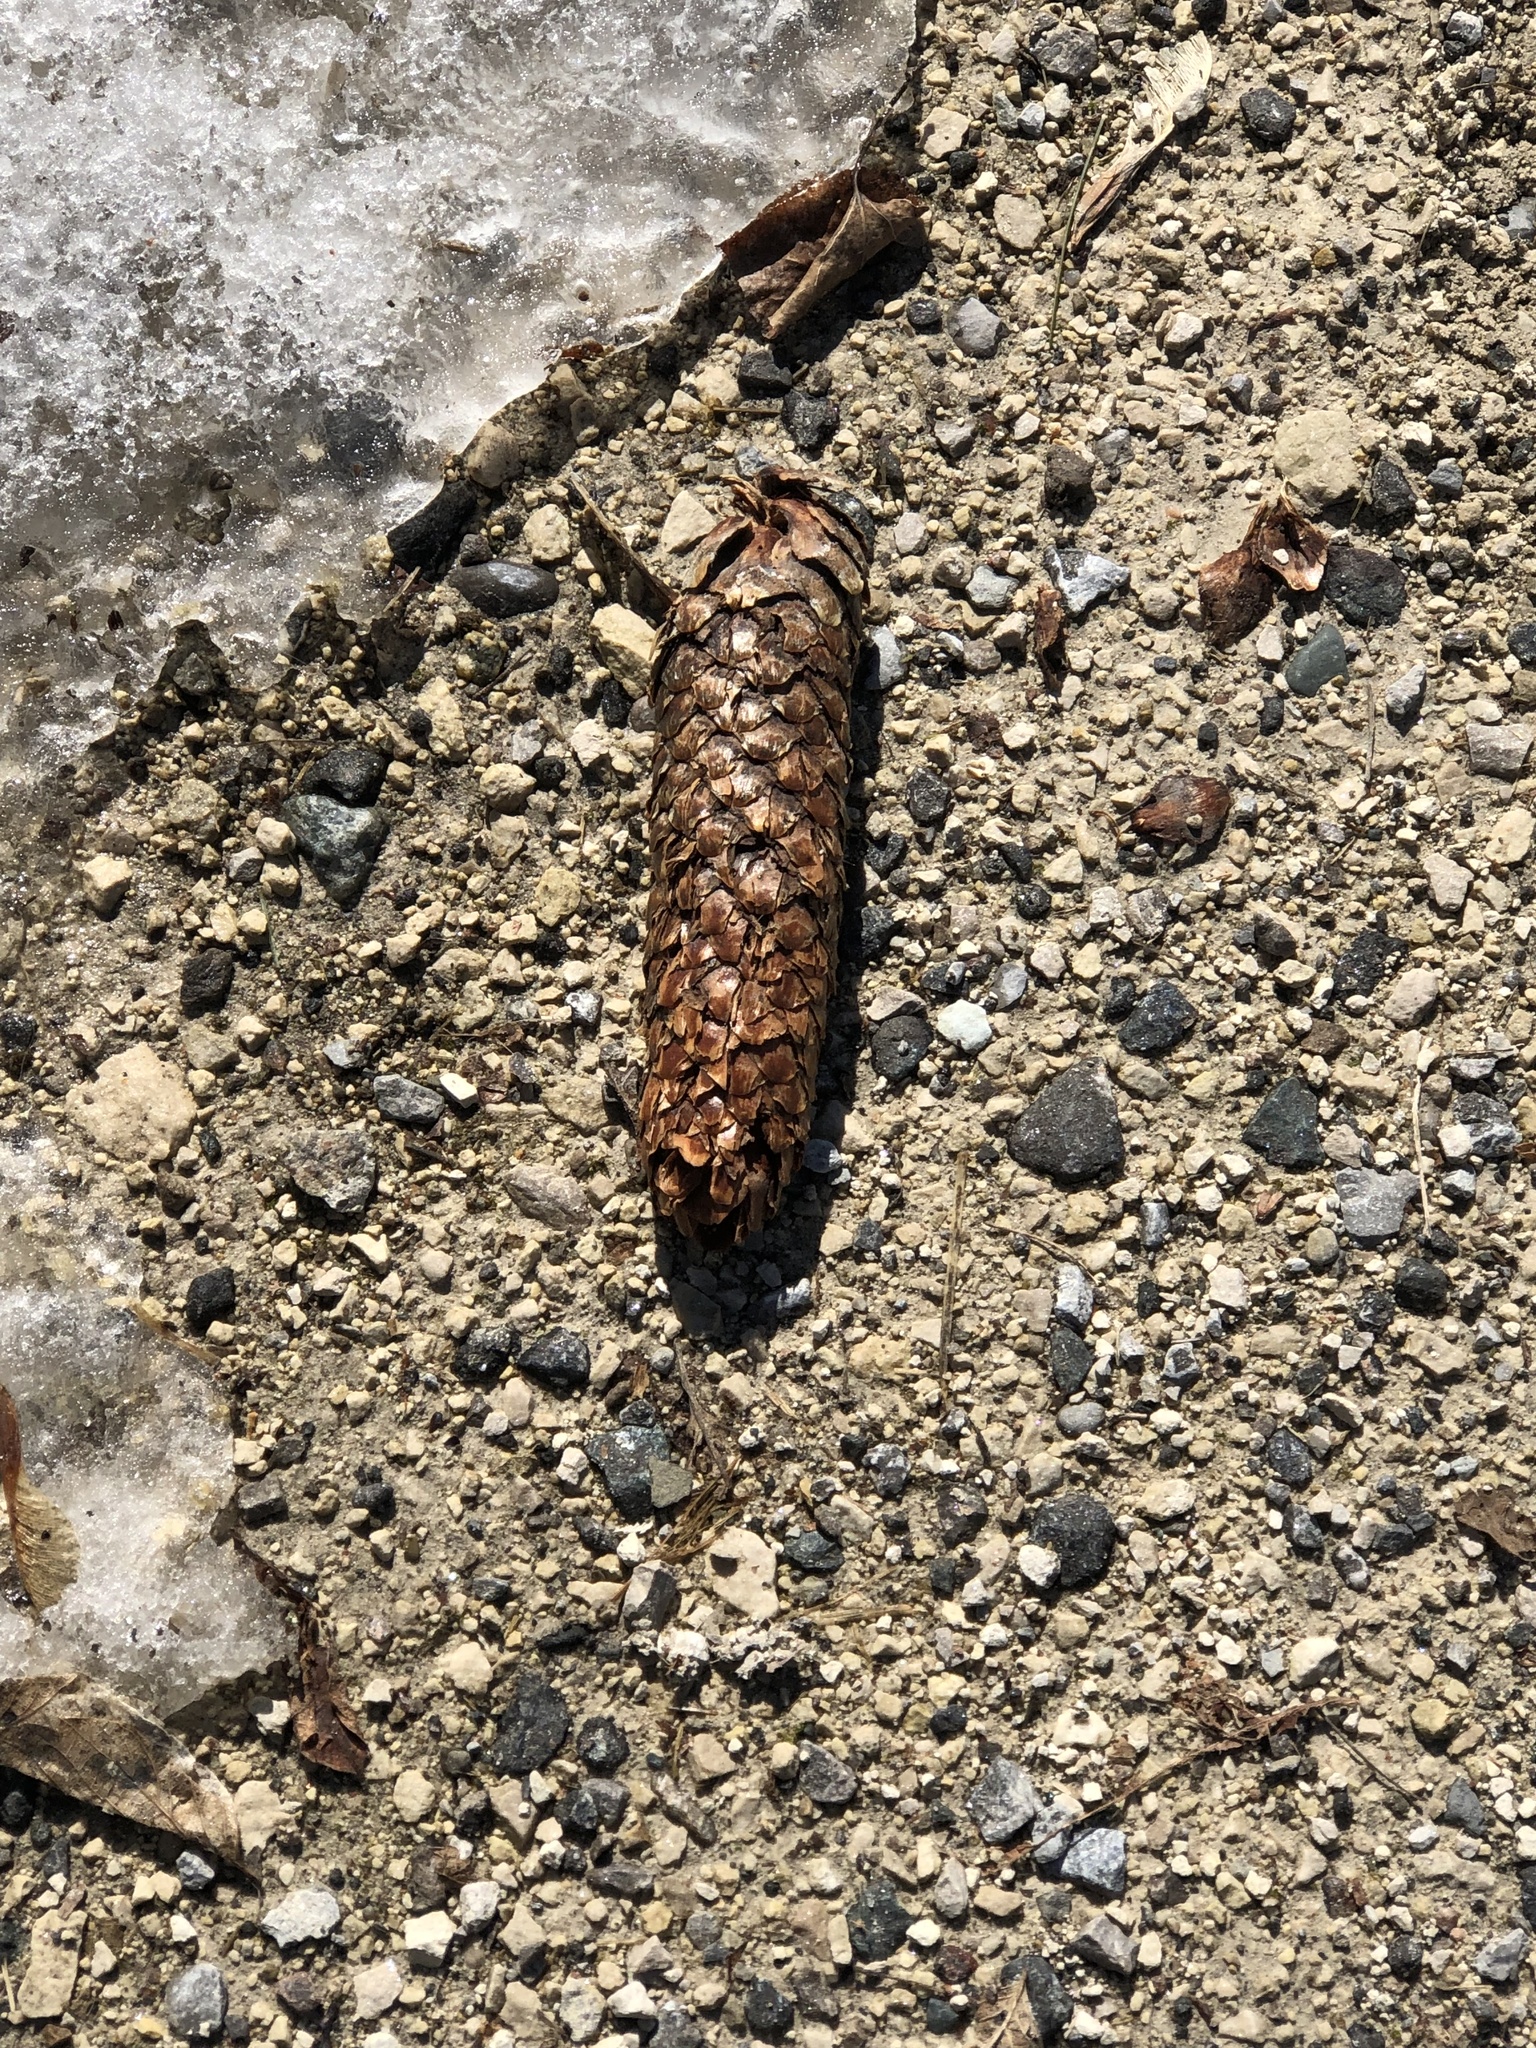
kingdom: Plantae
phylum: Tracheophyta
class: Pinopsida
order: Pinales
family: Pinaceae
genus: Picea
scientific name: Picea abies
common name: Norway spruce
